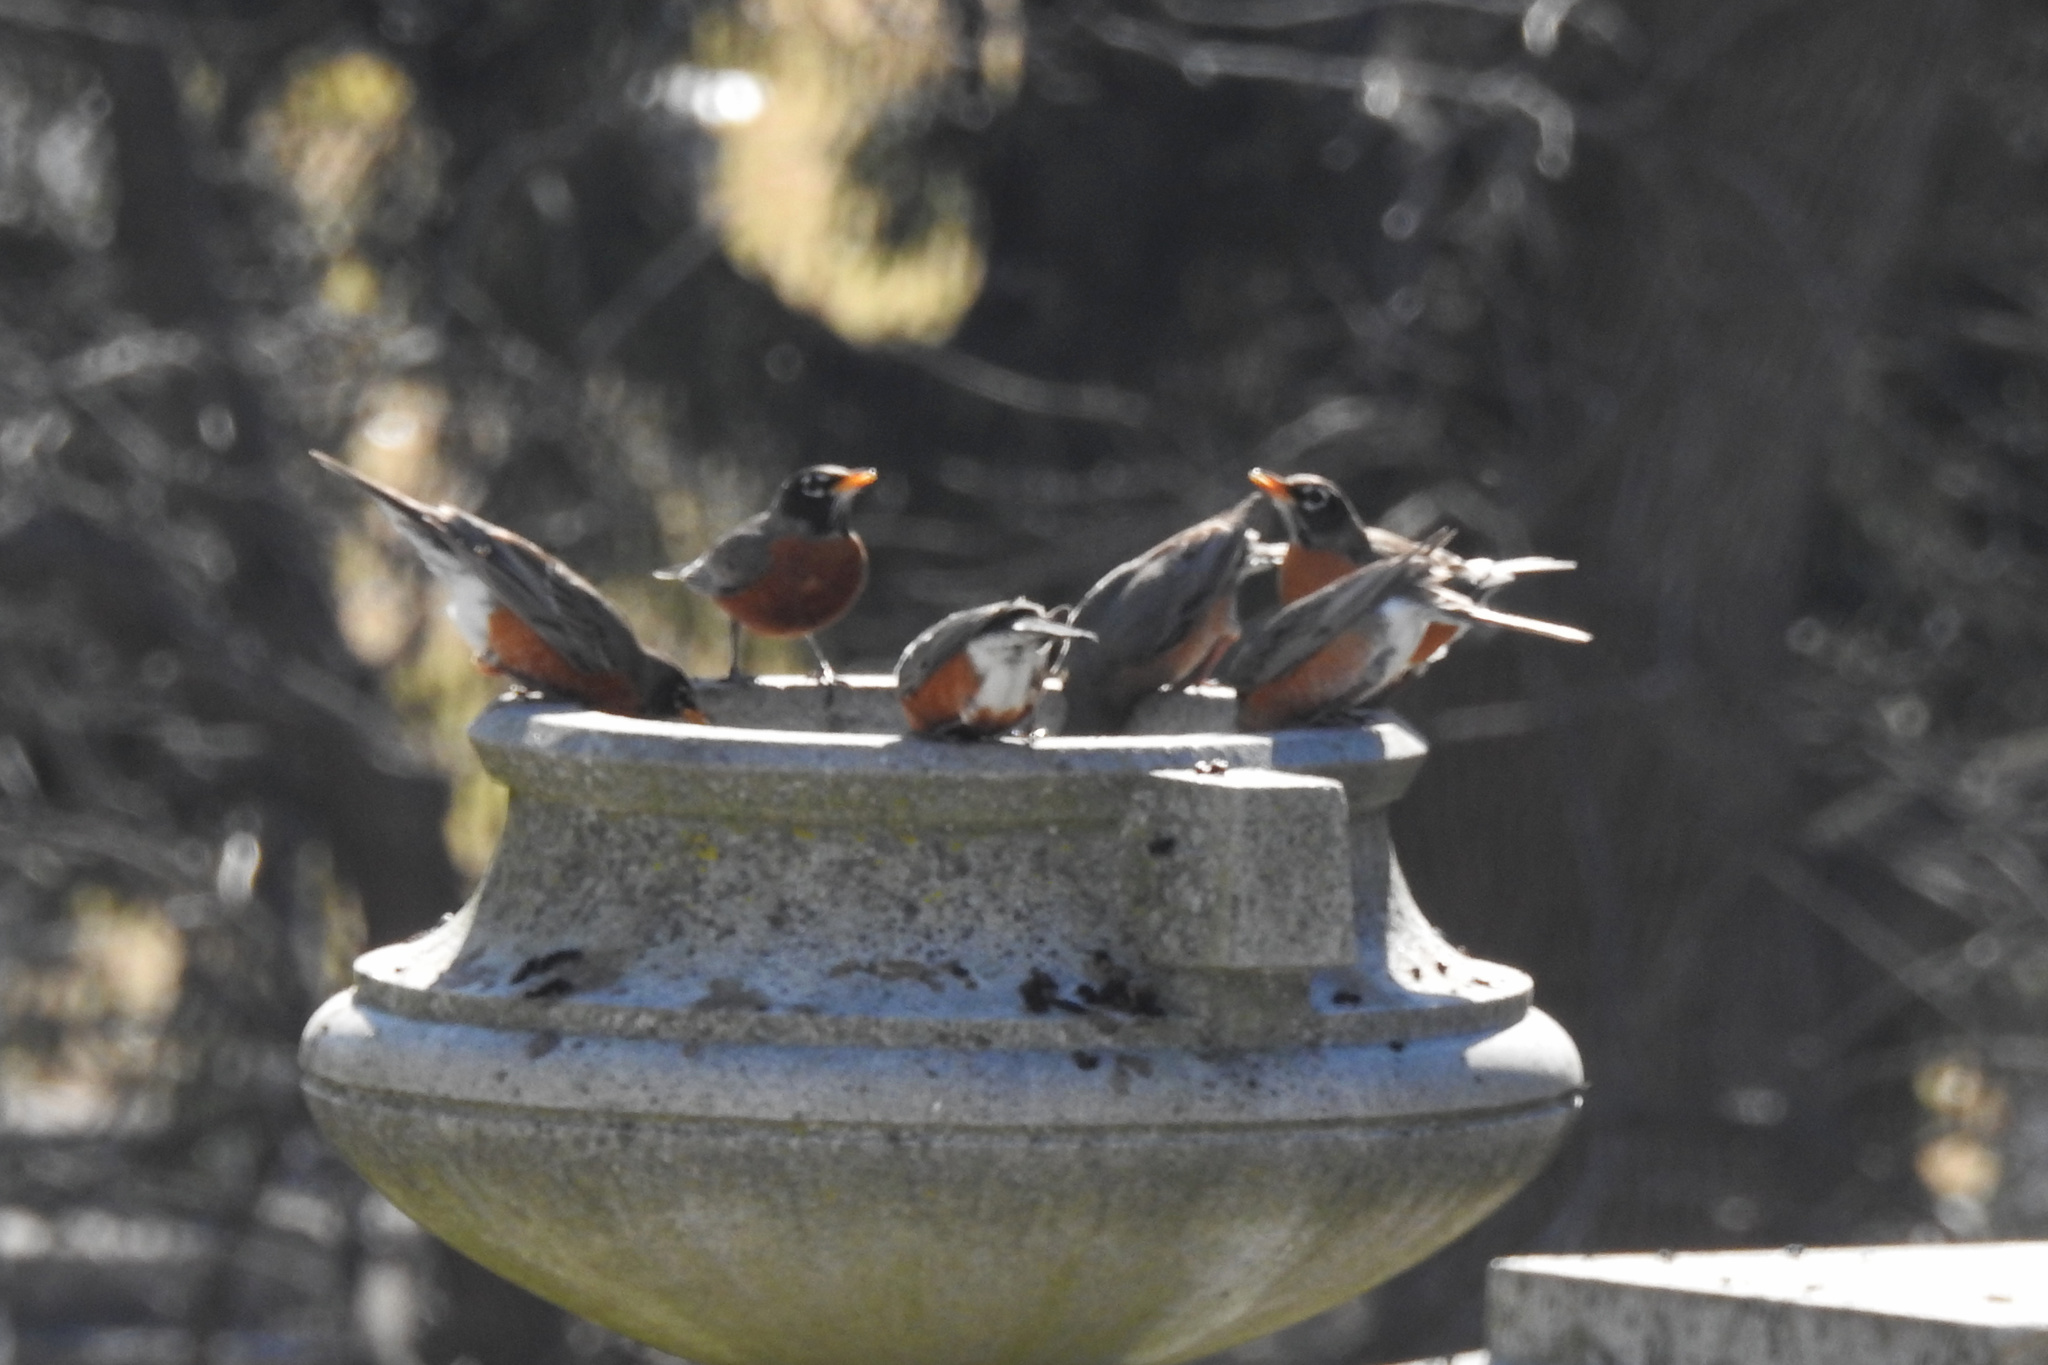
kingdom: Animalia
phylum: Chordata
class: Aves
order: Passeriformes
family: Turdidae
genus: Turdus
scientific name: Turdus migratorius
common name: American robin
